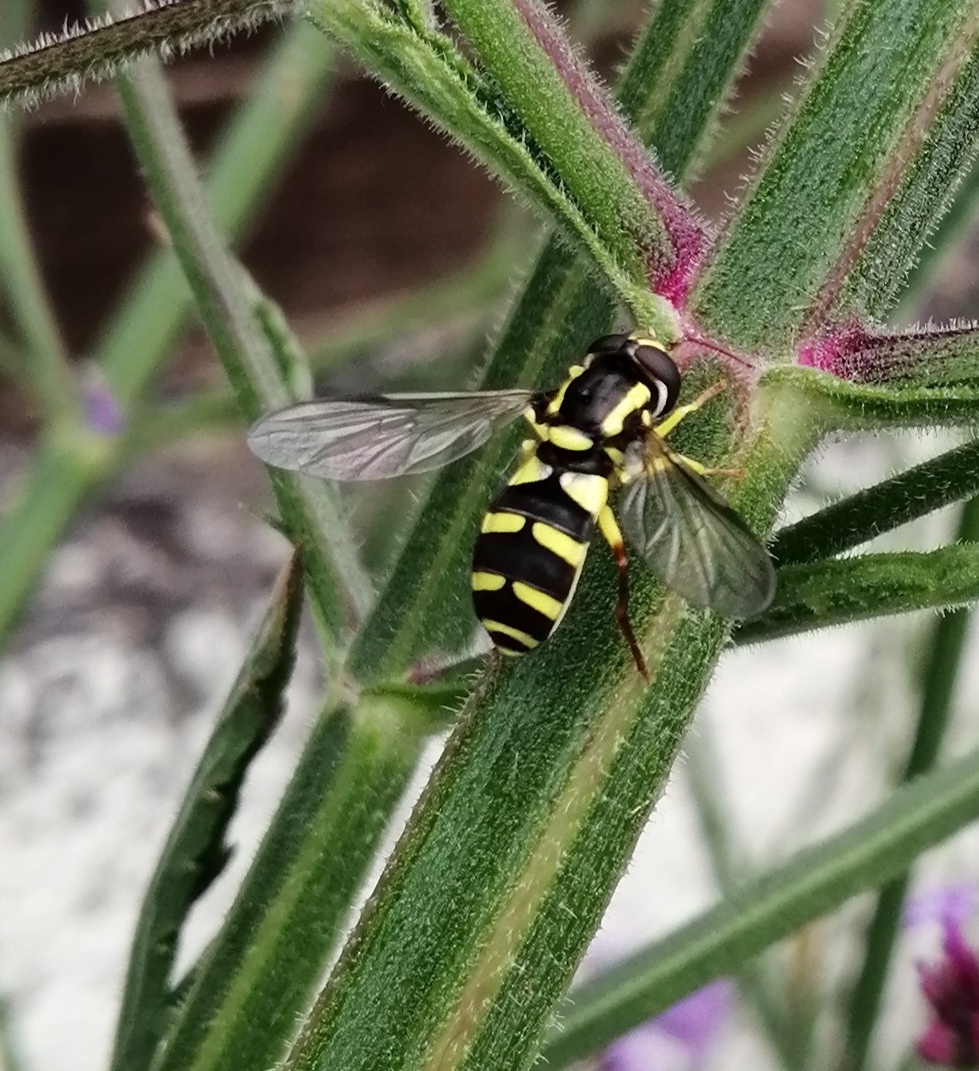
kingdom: Animalia
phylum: Arthropoda
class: Insecta
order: Diptera
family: Syrphidae
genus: Philhelius
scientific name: Philhelius stackelbergi
